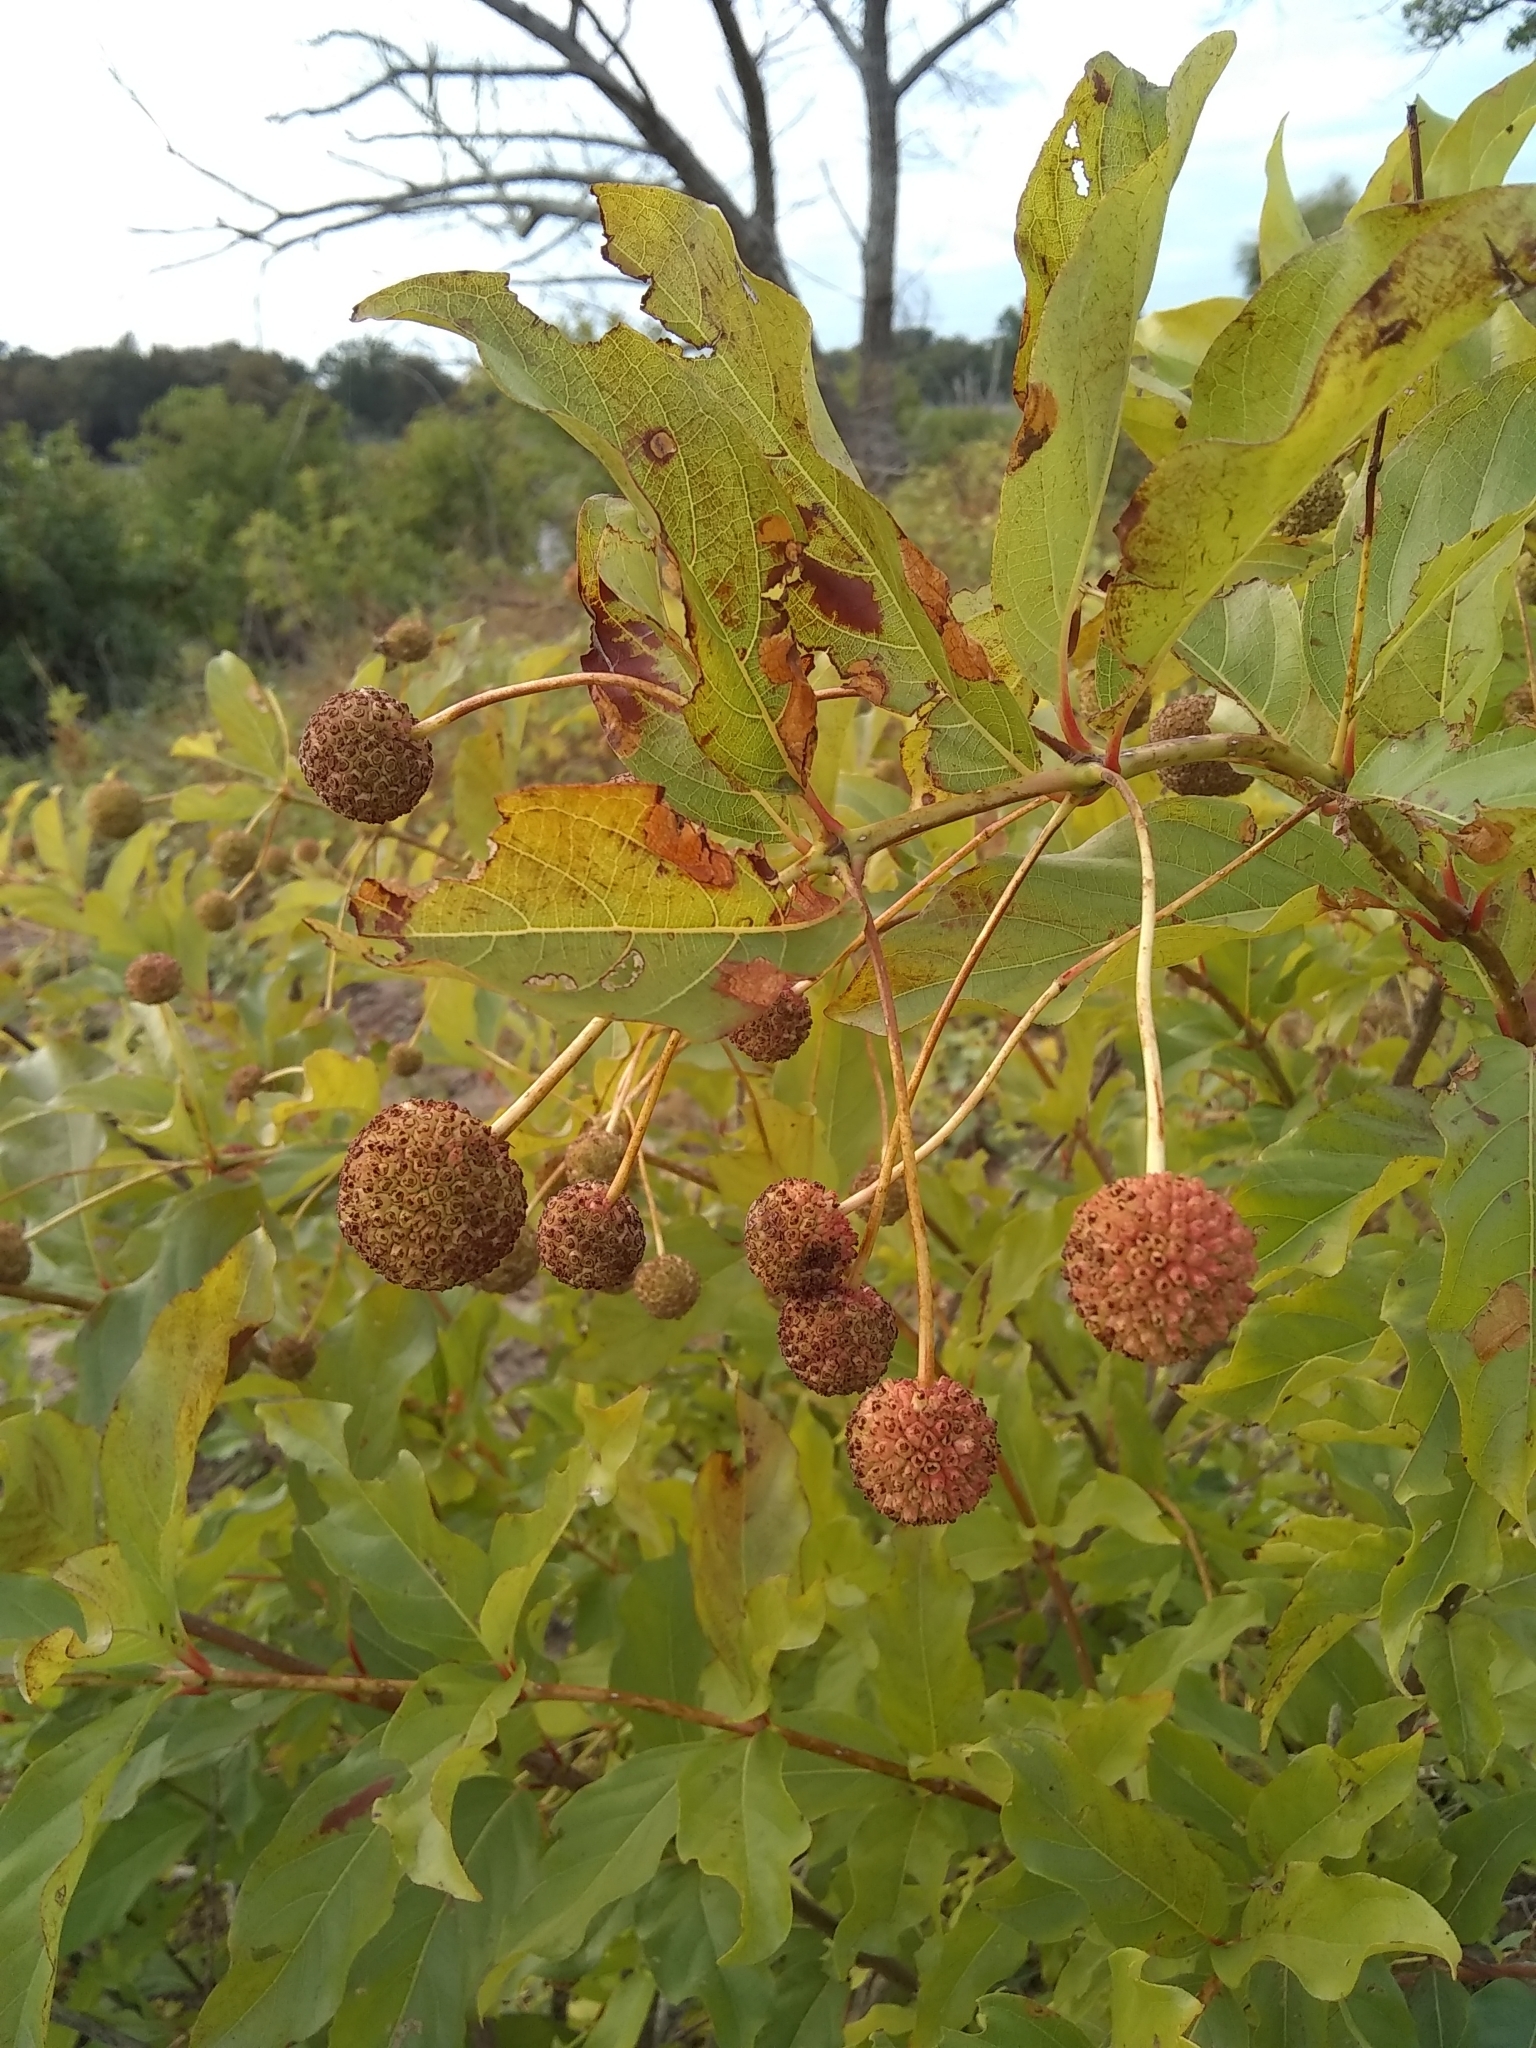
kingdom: Plantae
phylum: Tracheophyta
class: Magnoliopsida
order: Gentianales
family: Rubiaceae
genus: Cephalanthus
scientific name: Cephalanthus occidentalis
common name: Button-willow
